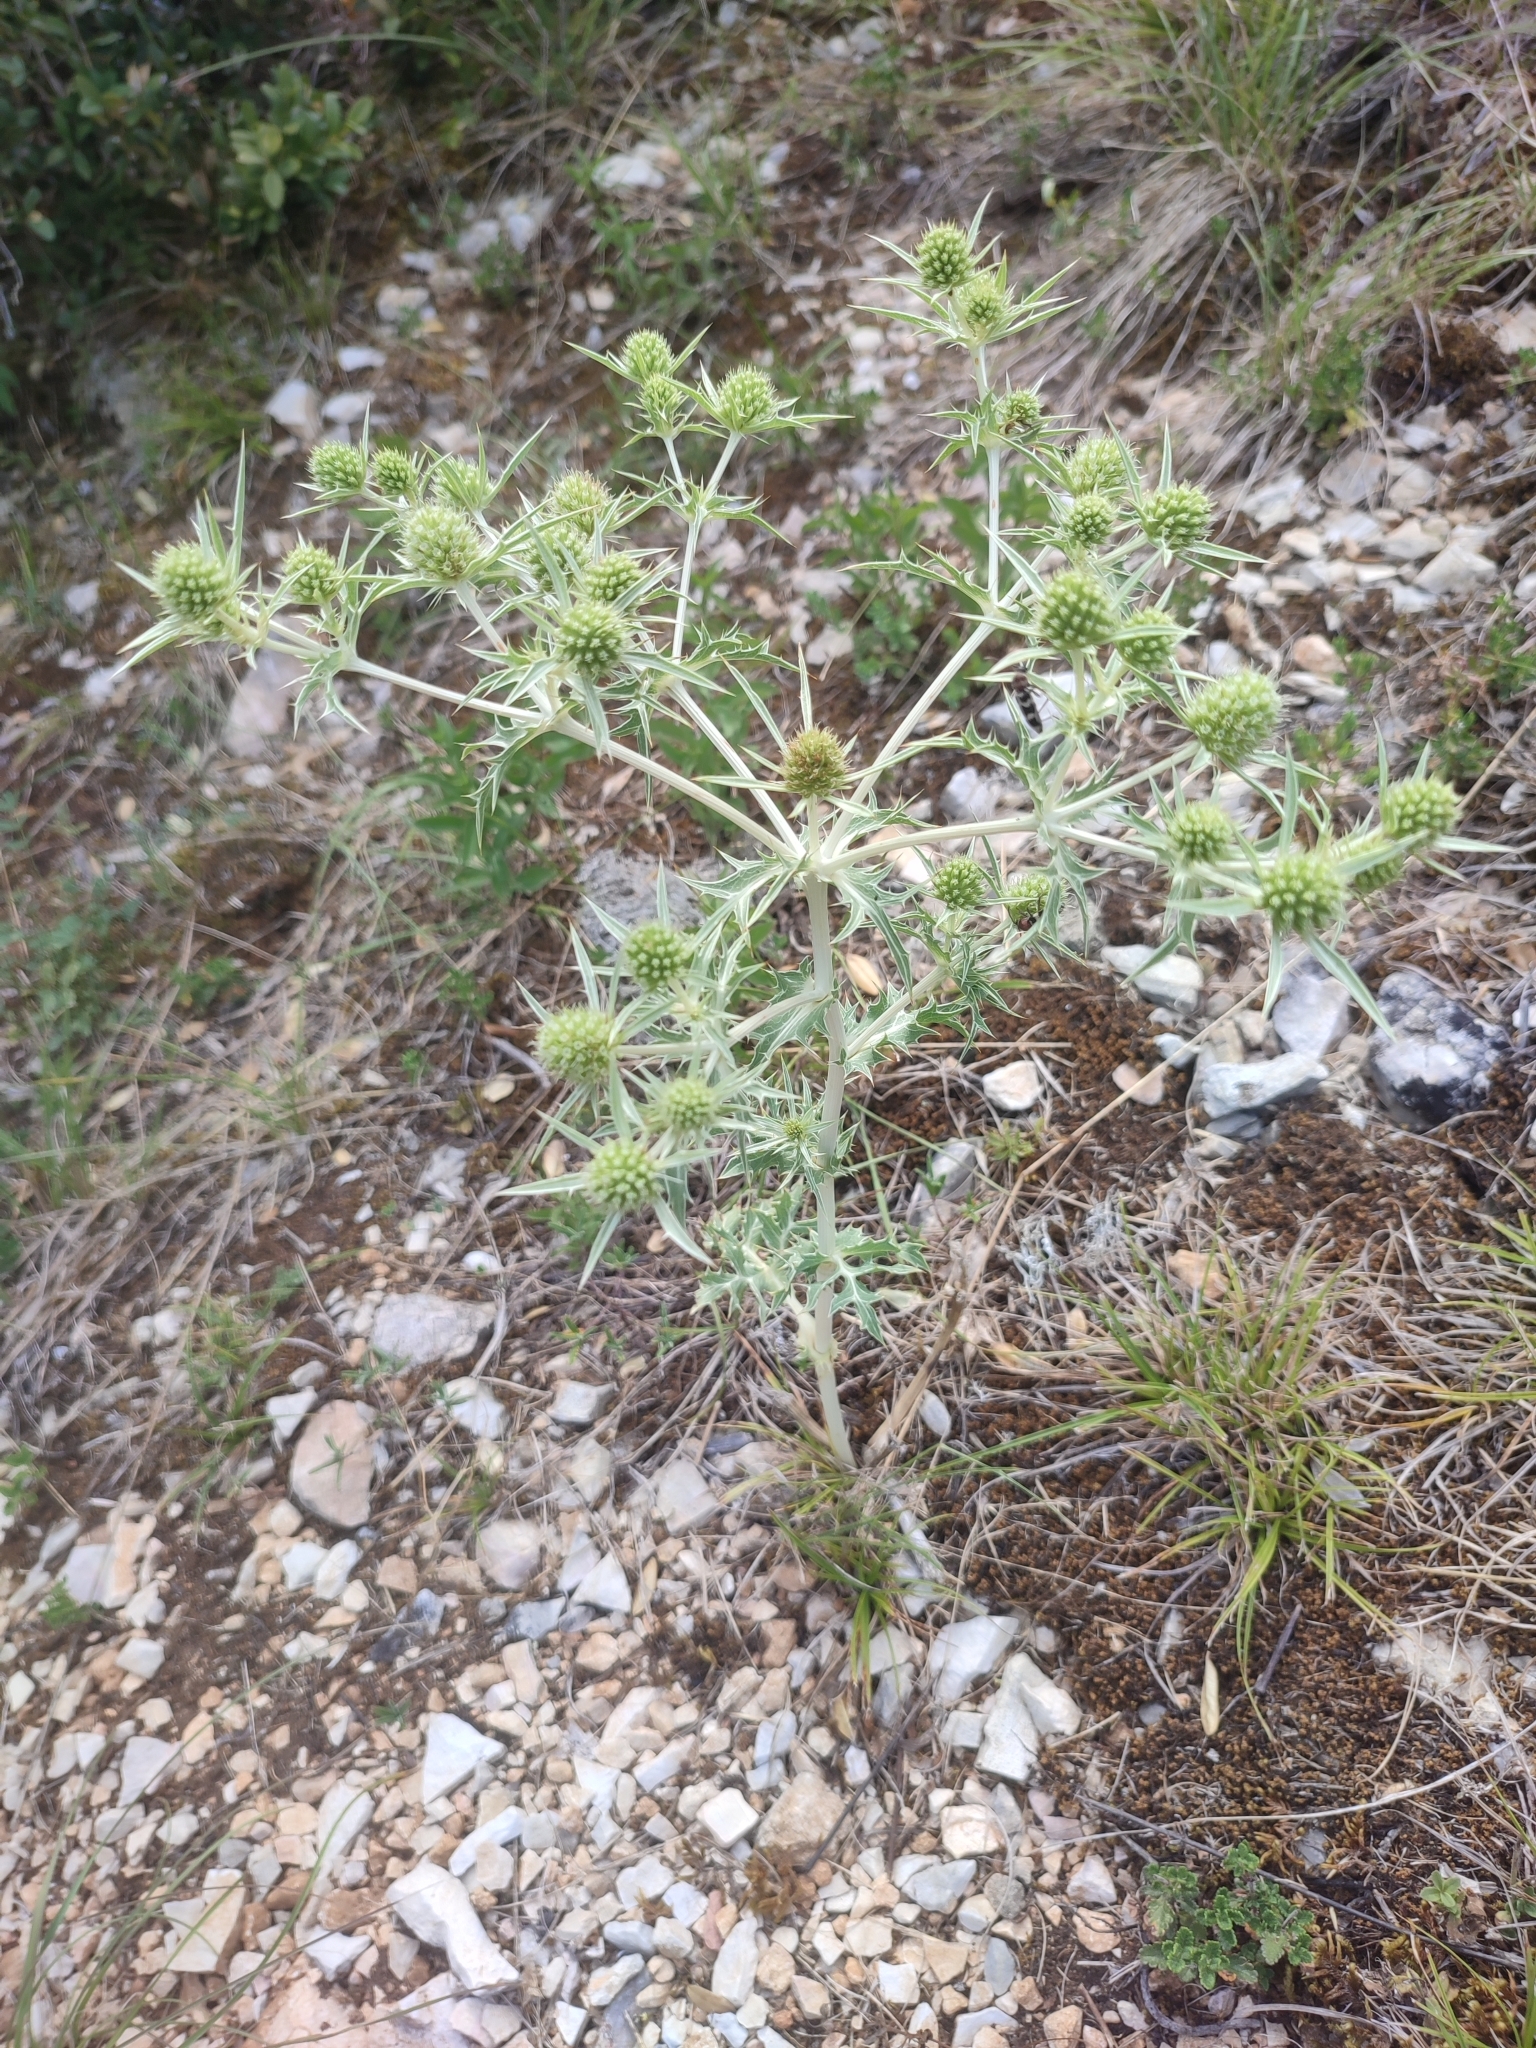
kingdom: Plantae
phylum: Tracheophyta
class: Magnoliopsida
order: Apiales
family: Apiaceae
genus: Eryngium
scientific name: Eryngium campestre
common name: Field eryngo
